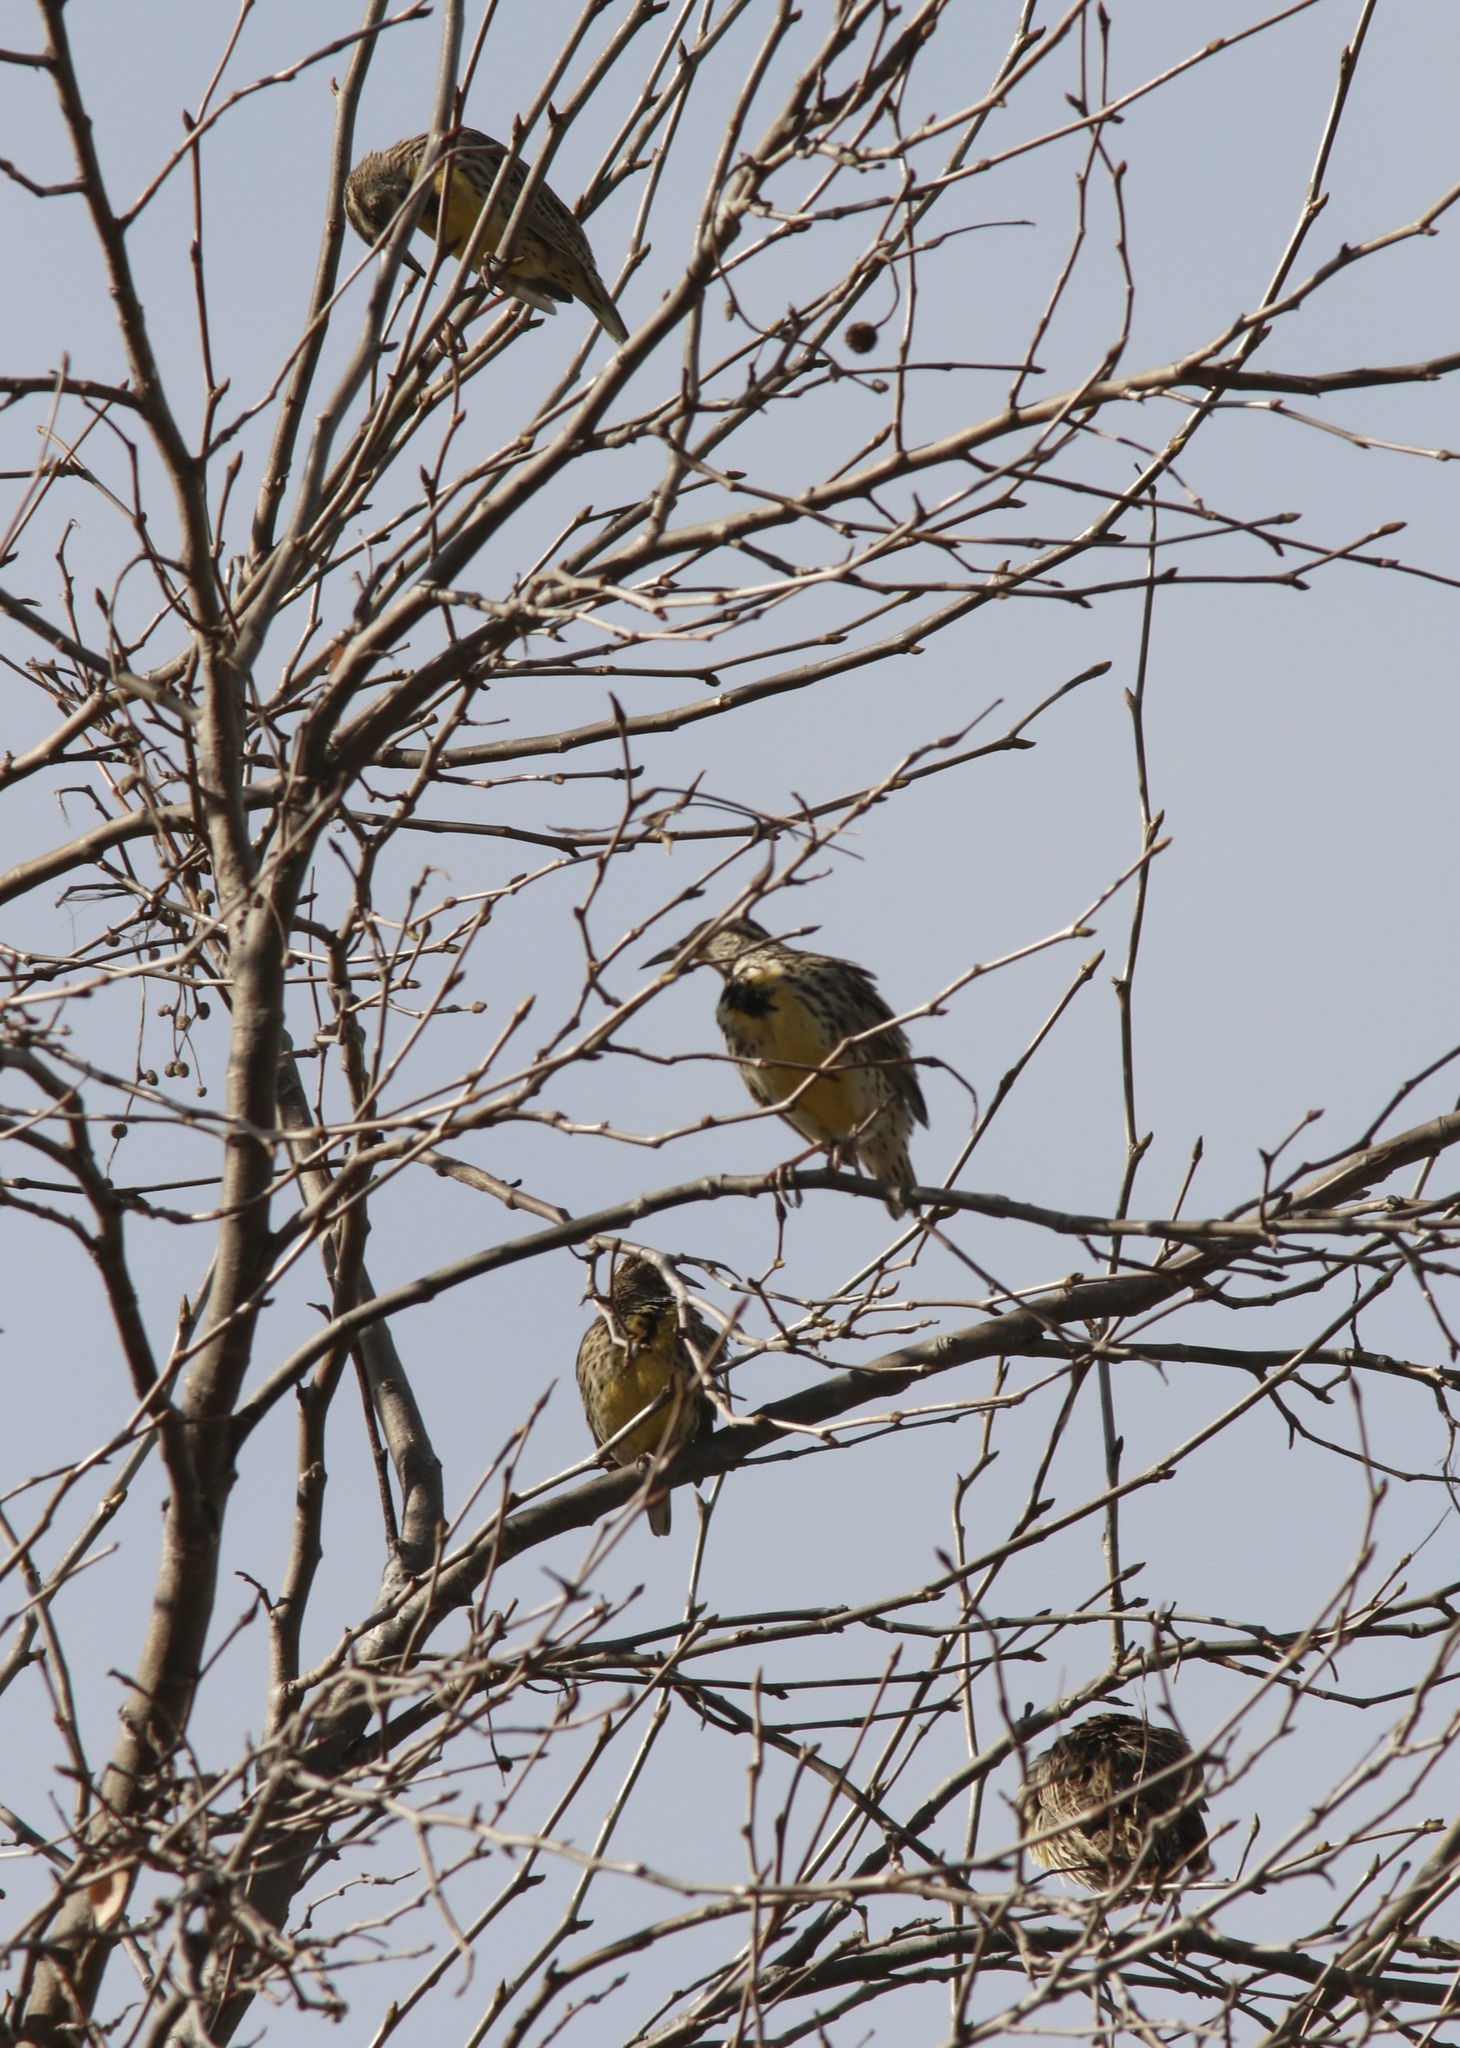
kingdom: Animalia
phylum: Chordata
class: Aves
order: Passeriformes
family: Icteridae
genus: Sturnella
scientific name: Sturnella neglecta
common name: Western meadowlark
